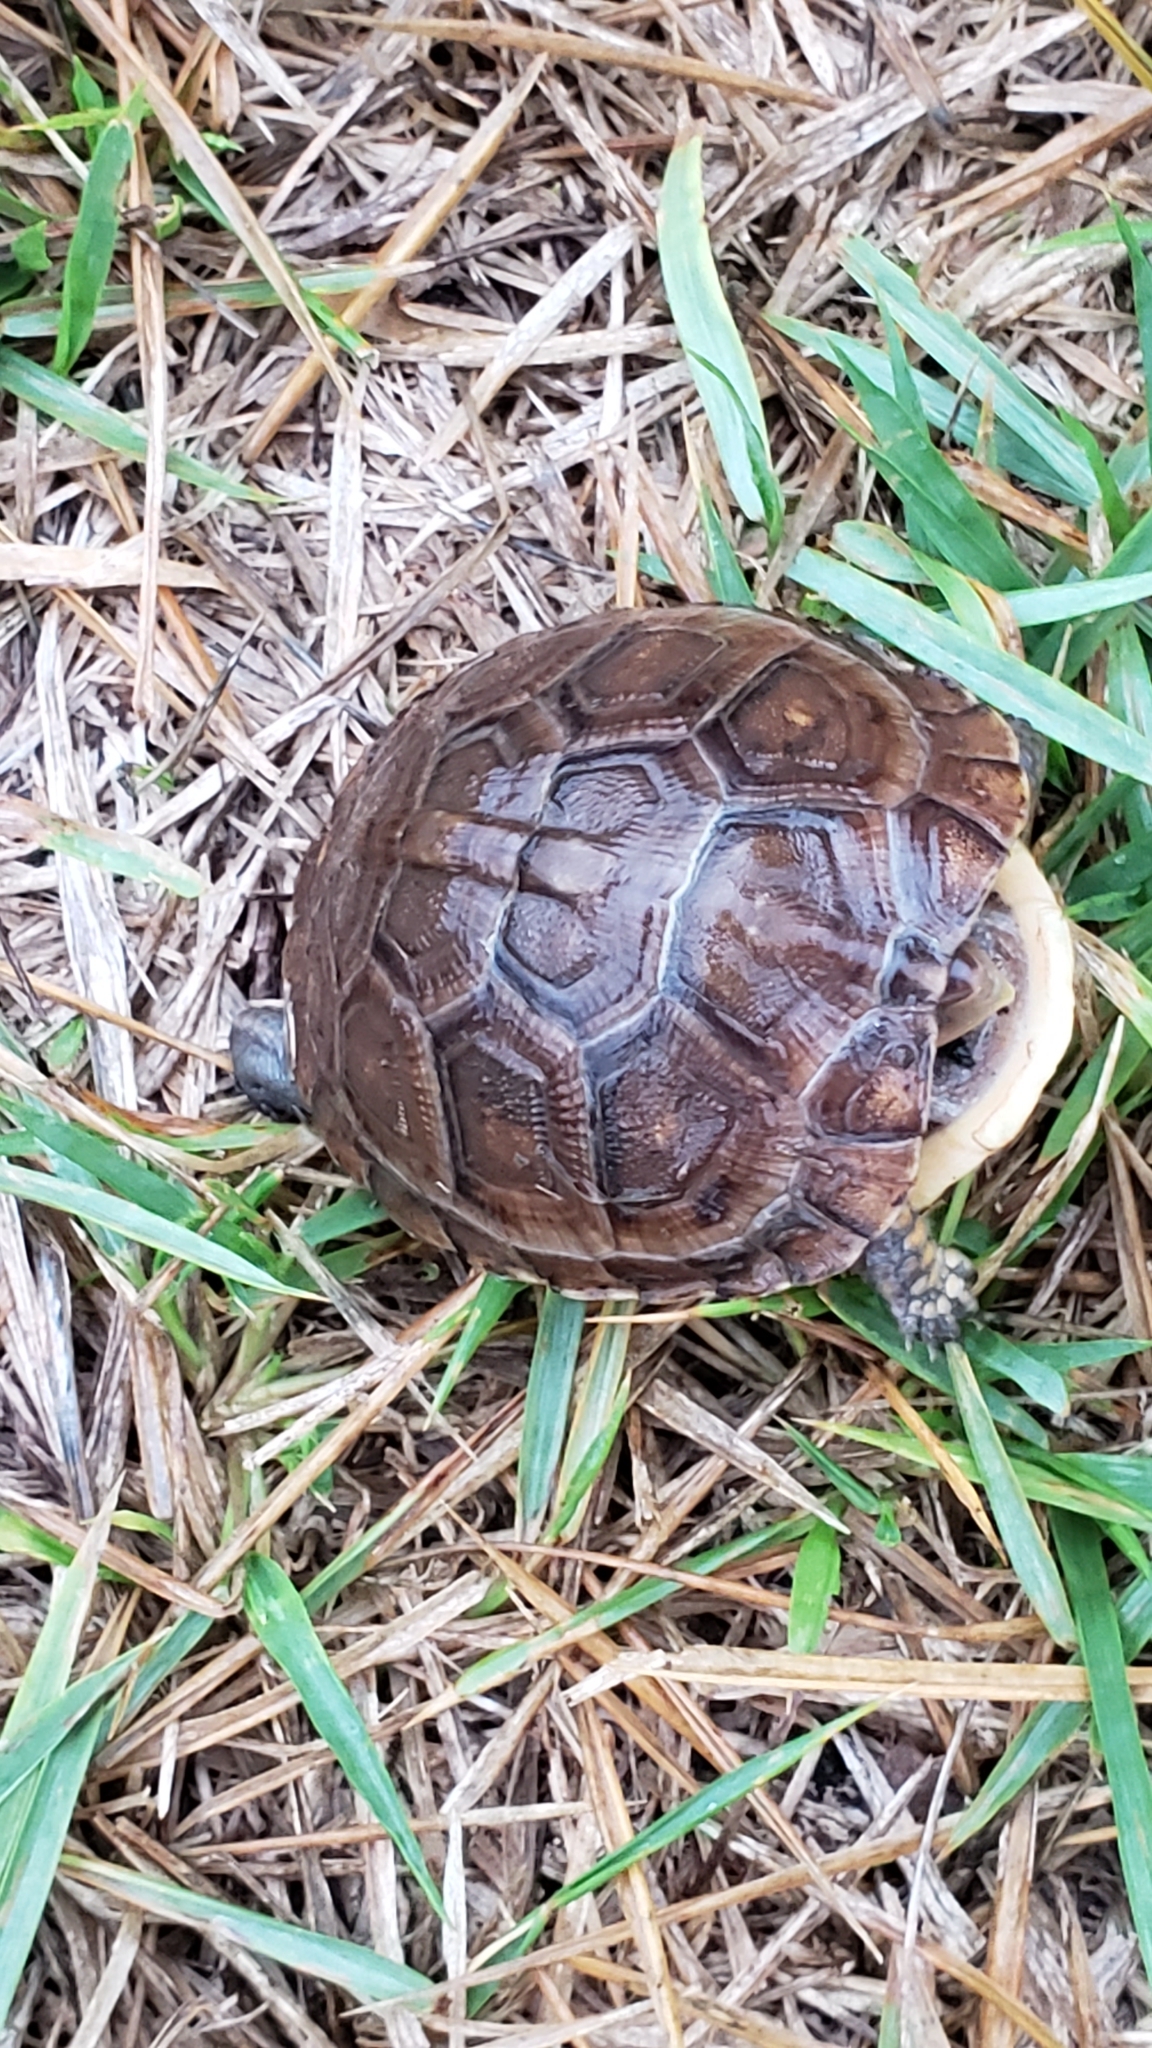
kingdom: Animalia
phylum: Chordata
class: Testudines
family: Emydidae
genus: Terrapene
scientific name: Terrapene carolina
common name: Common box turtle
